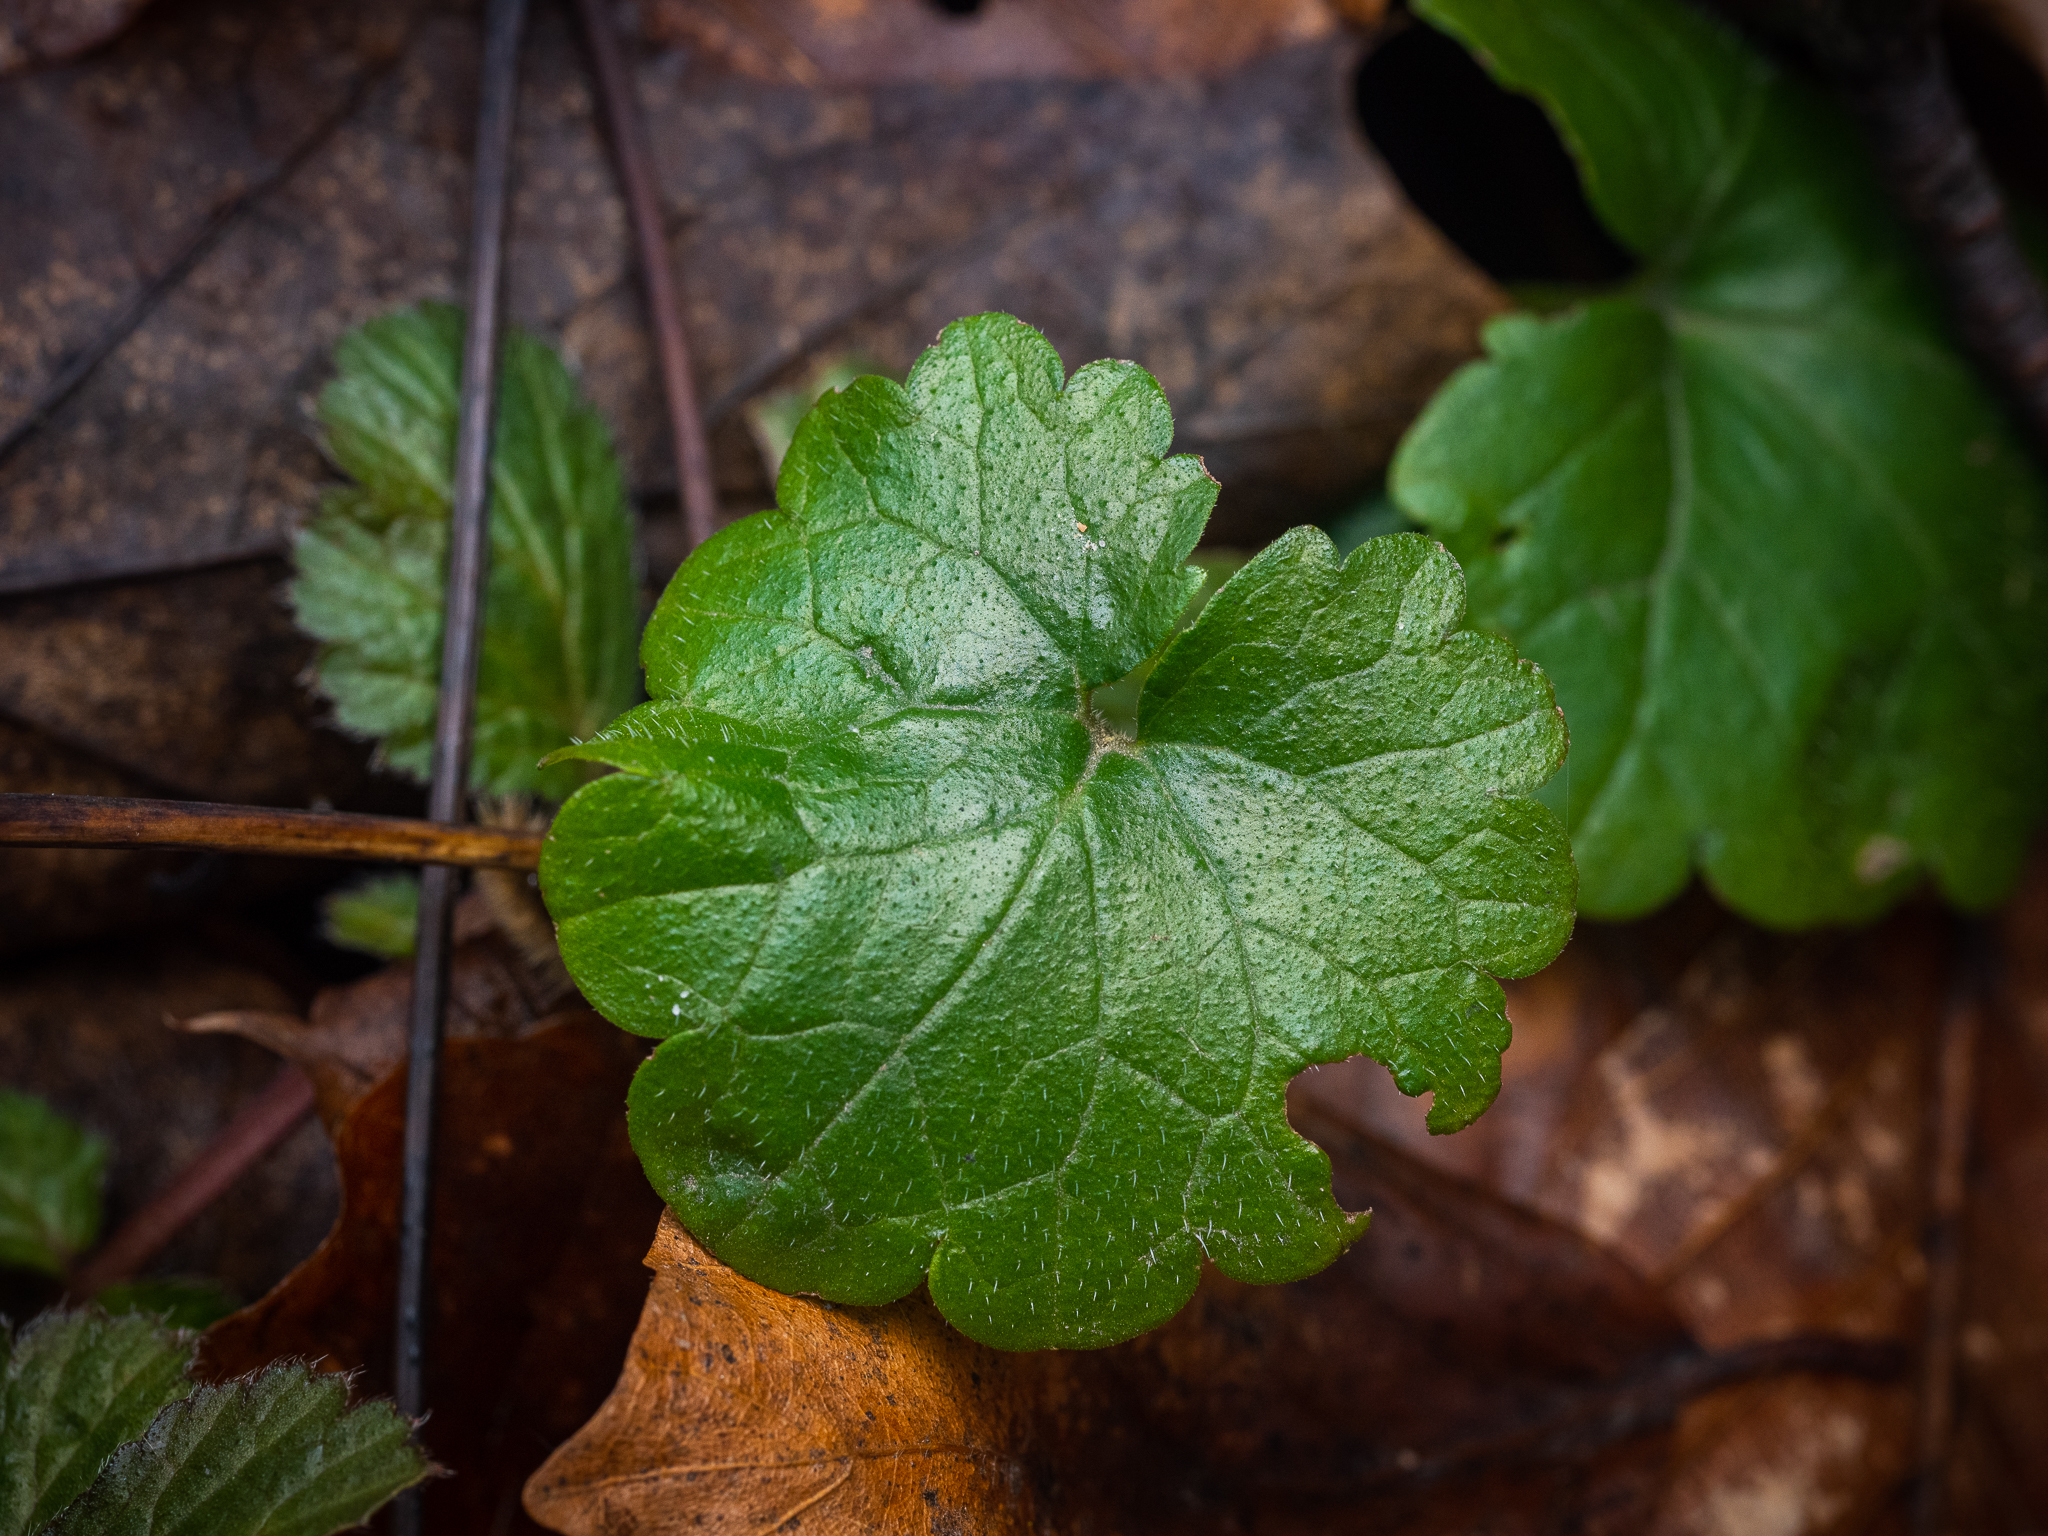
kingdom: Plantae
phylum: Tracheophyta
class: Magnoliopsida
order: Lamiales
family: Lamiaceae
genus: Glechoma
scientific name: Glechoma hederacea
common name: Ground ivy
